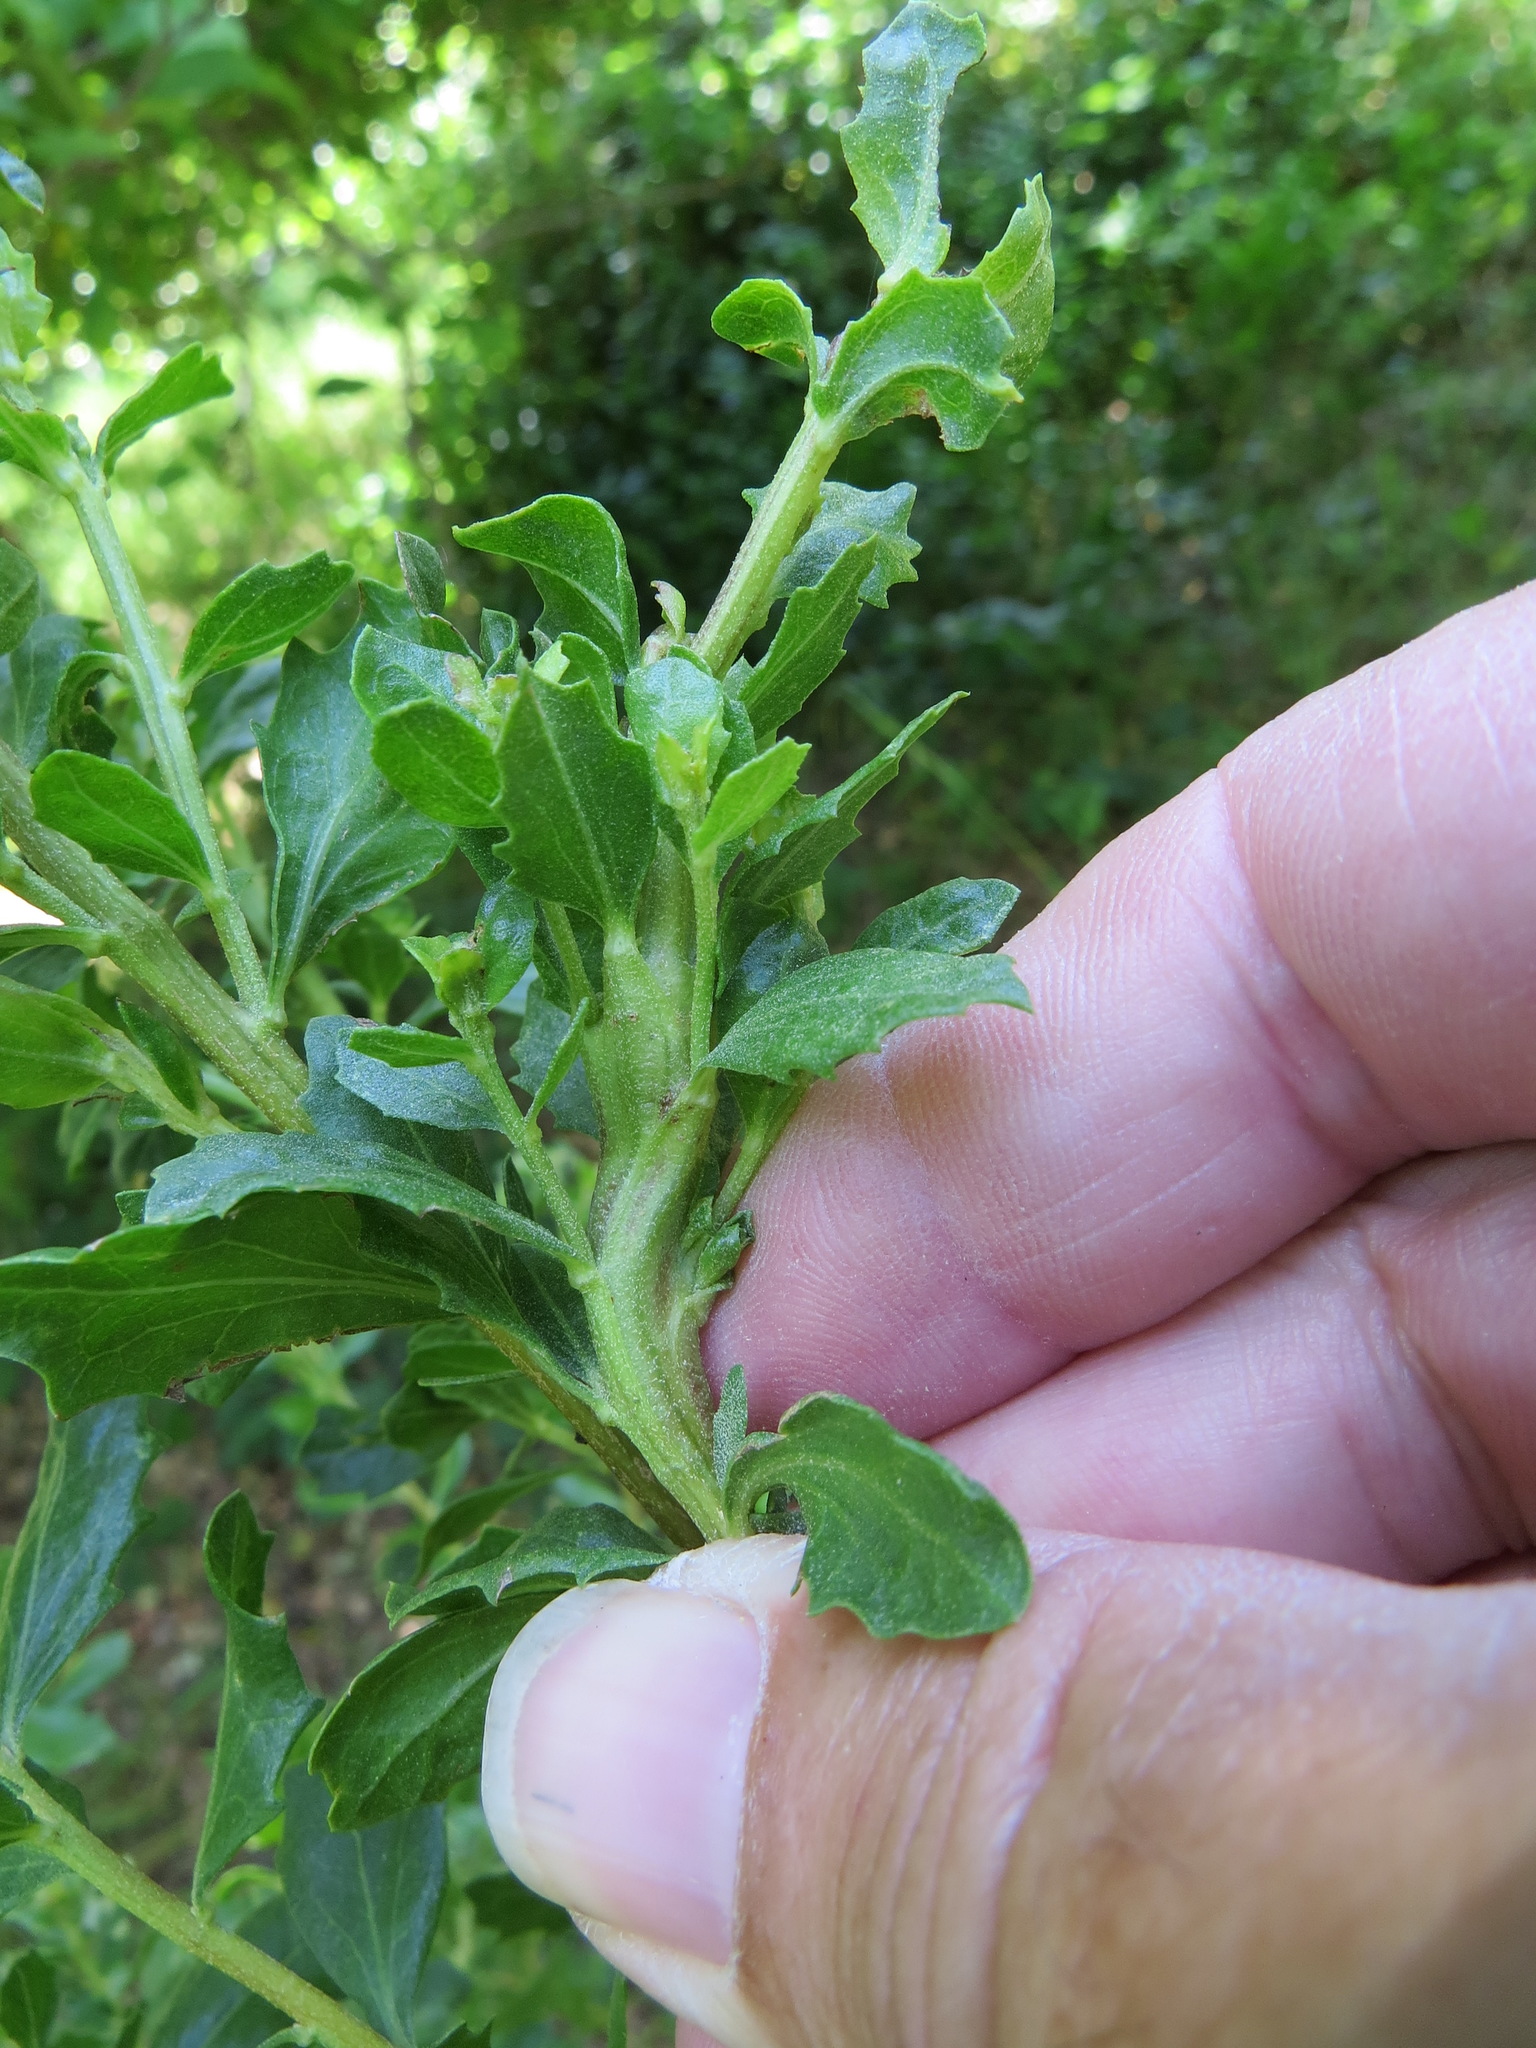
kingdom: Animalia
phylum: Arthropoda
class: Insecta
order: Diptera
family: Cecidomyiidae
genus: Rhopalomyia
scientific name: Rhopalomyia baccharis
